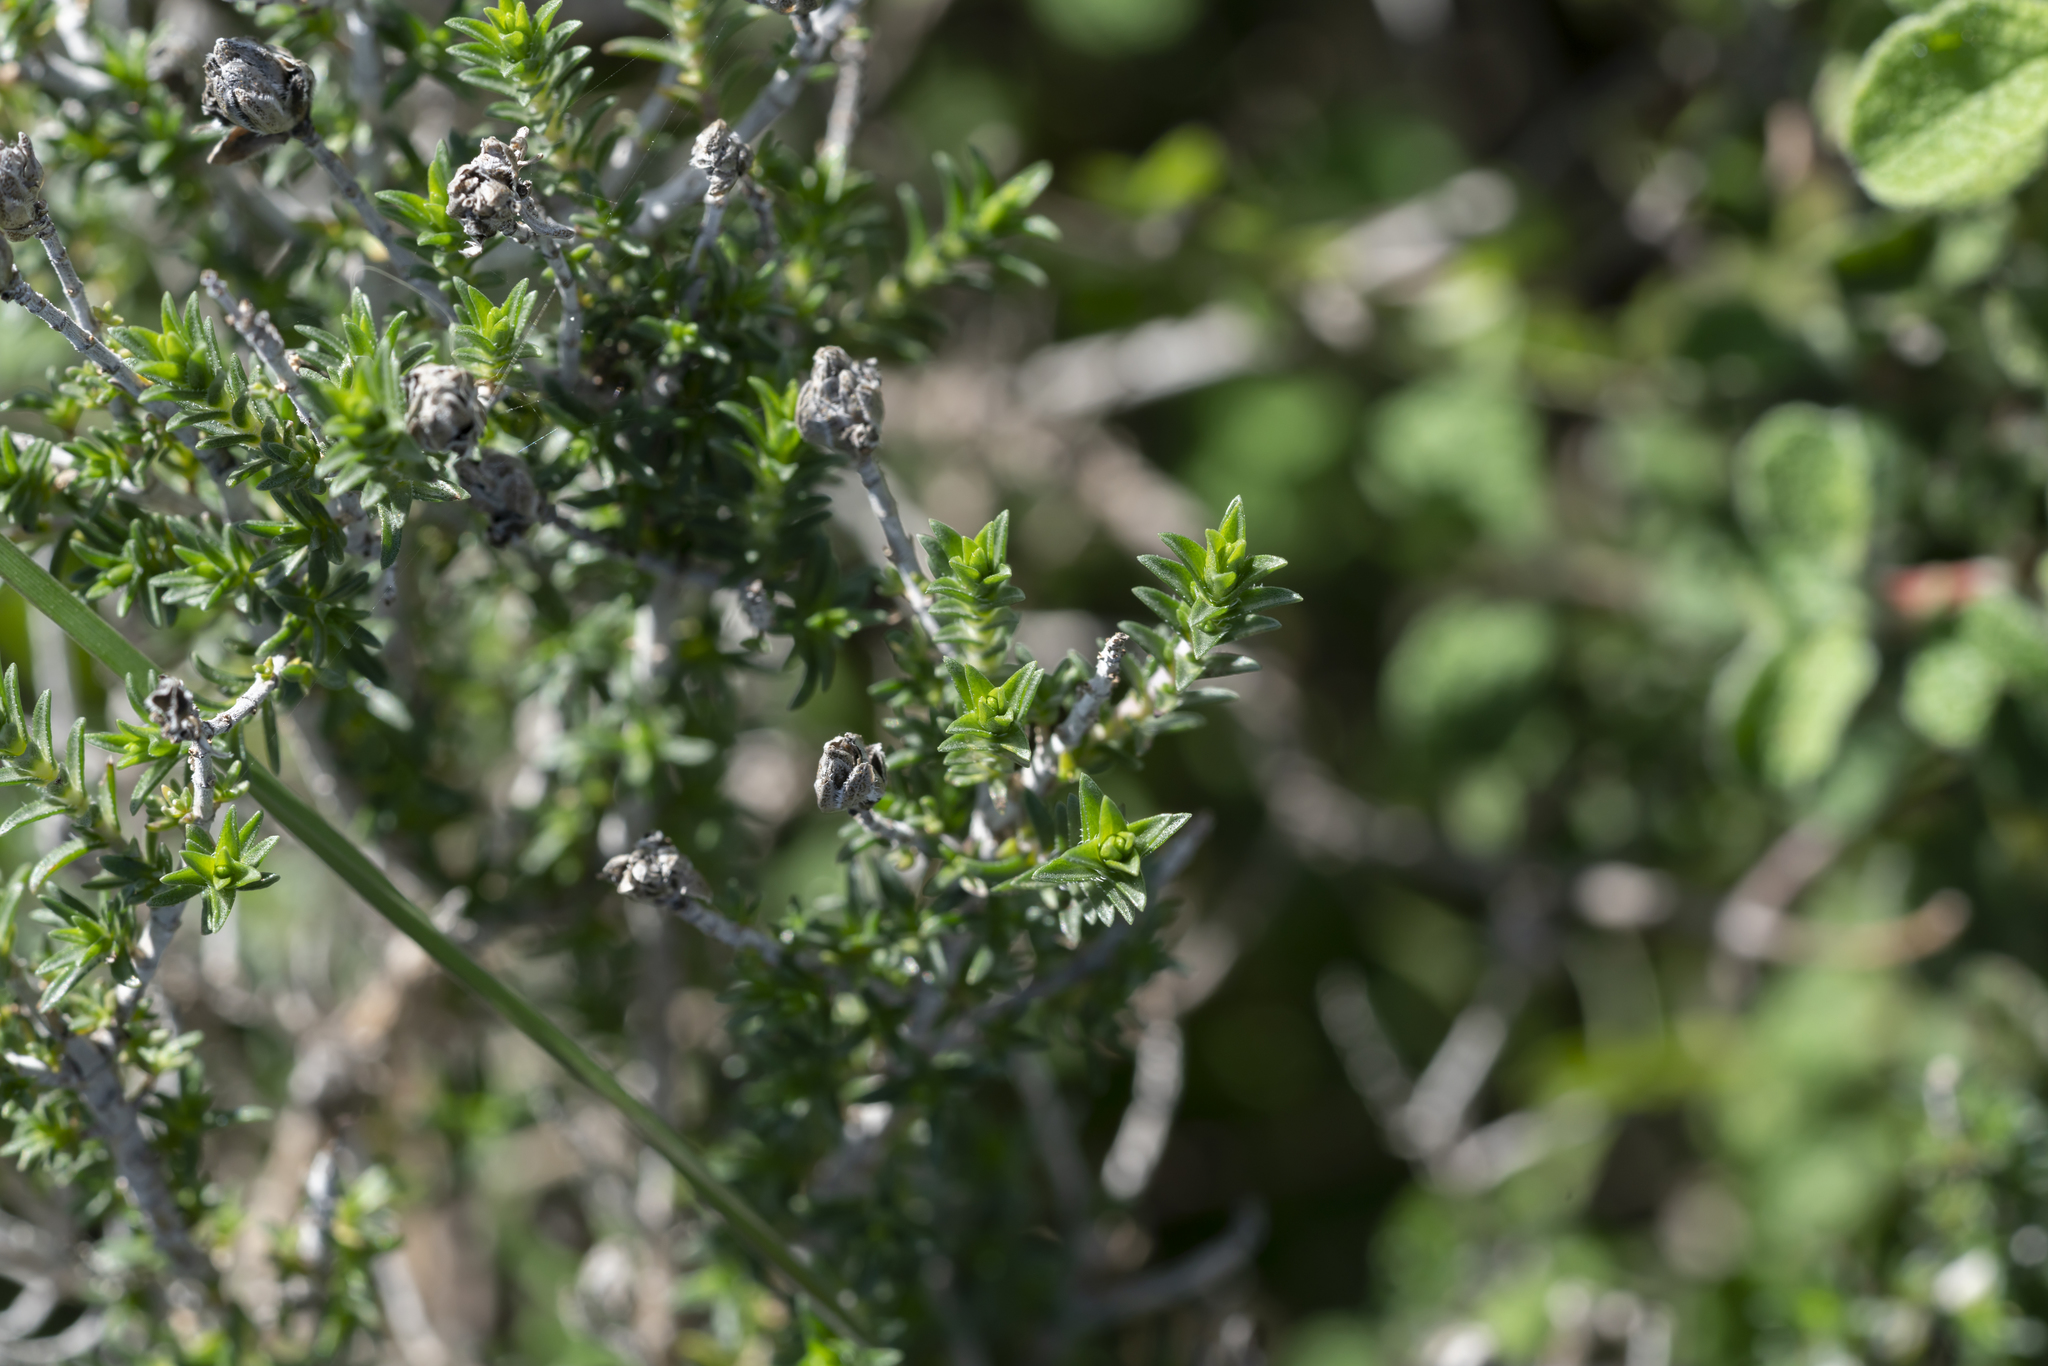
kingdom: Plantae
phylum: Tracheophyta
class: Magnoliopsida
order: Lamiales
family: Lamiaceae
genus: Thymbra
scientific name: Thymbra capitata
